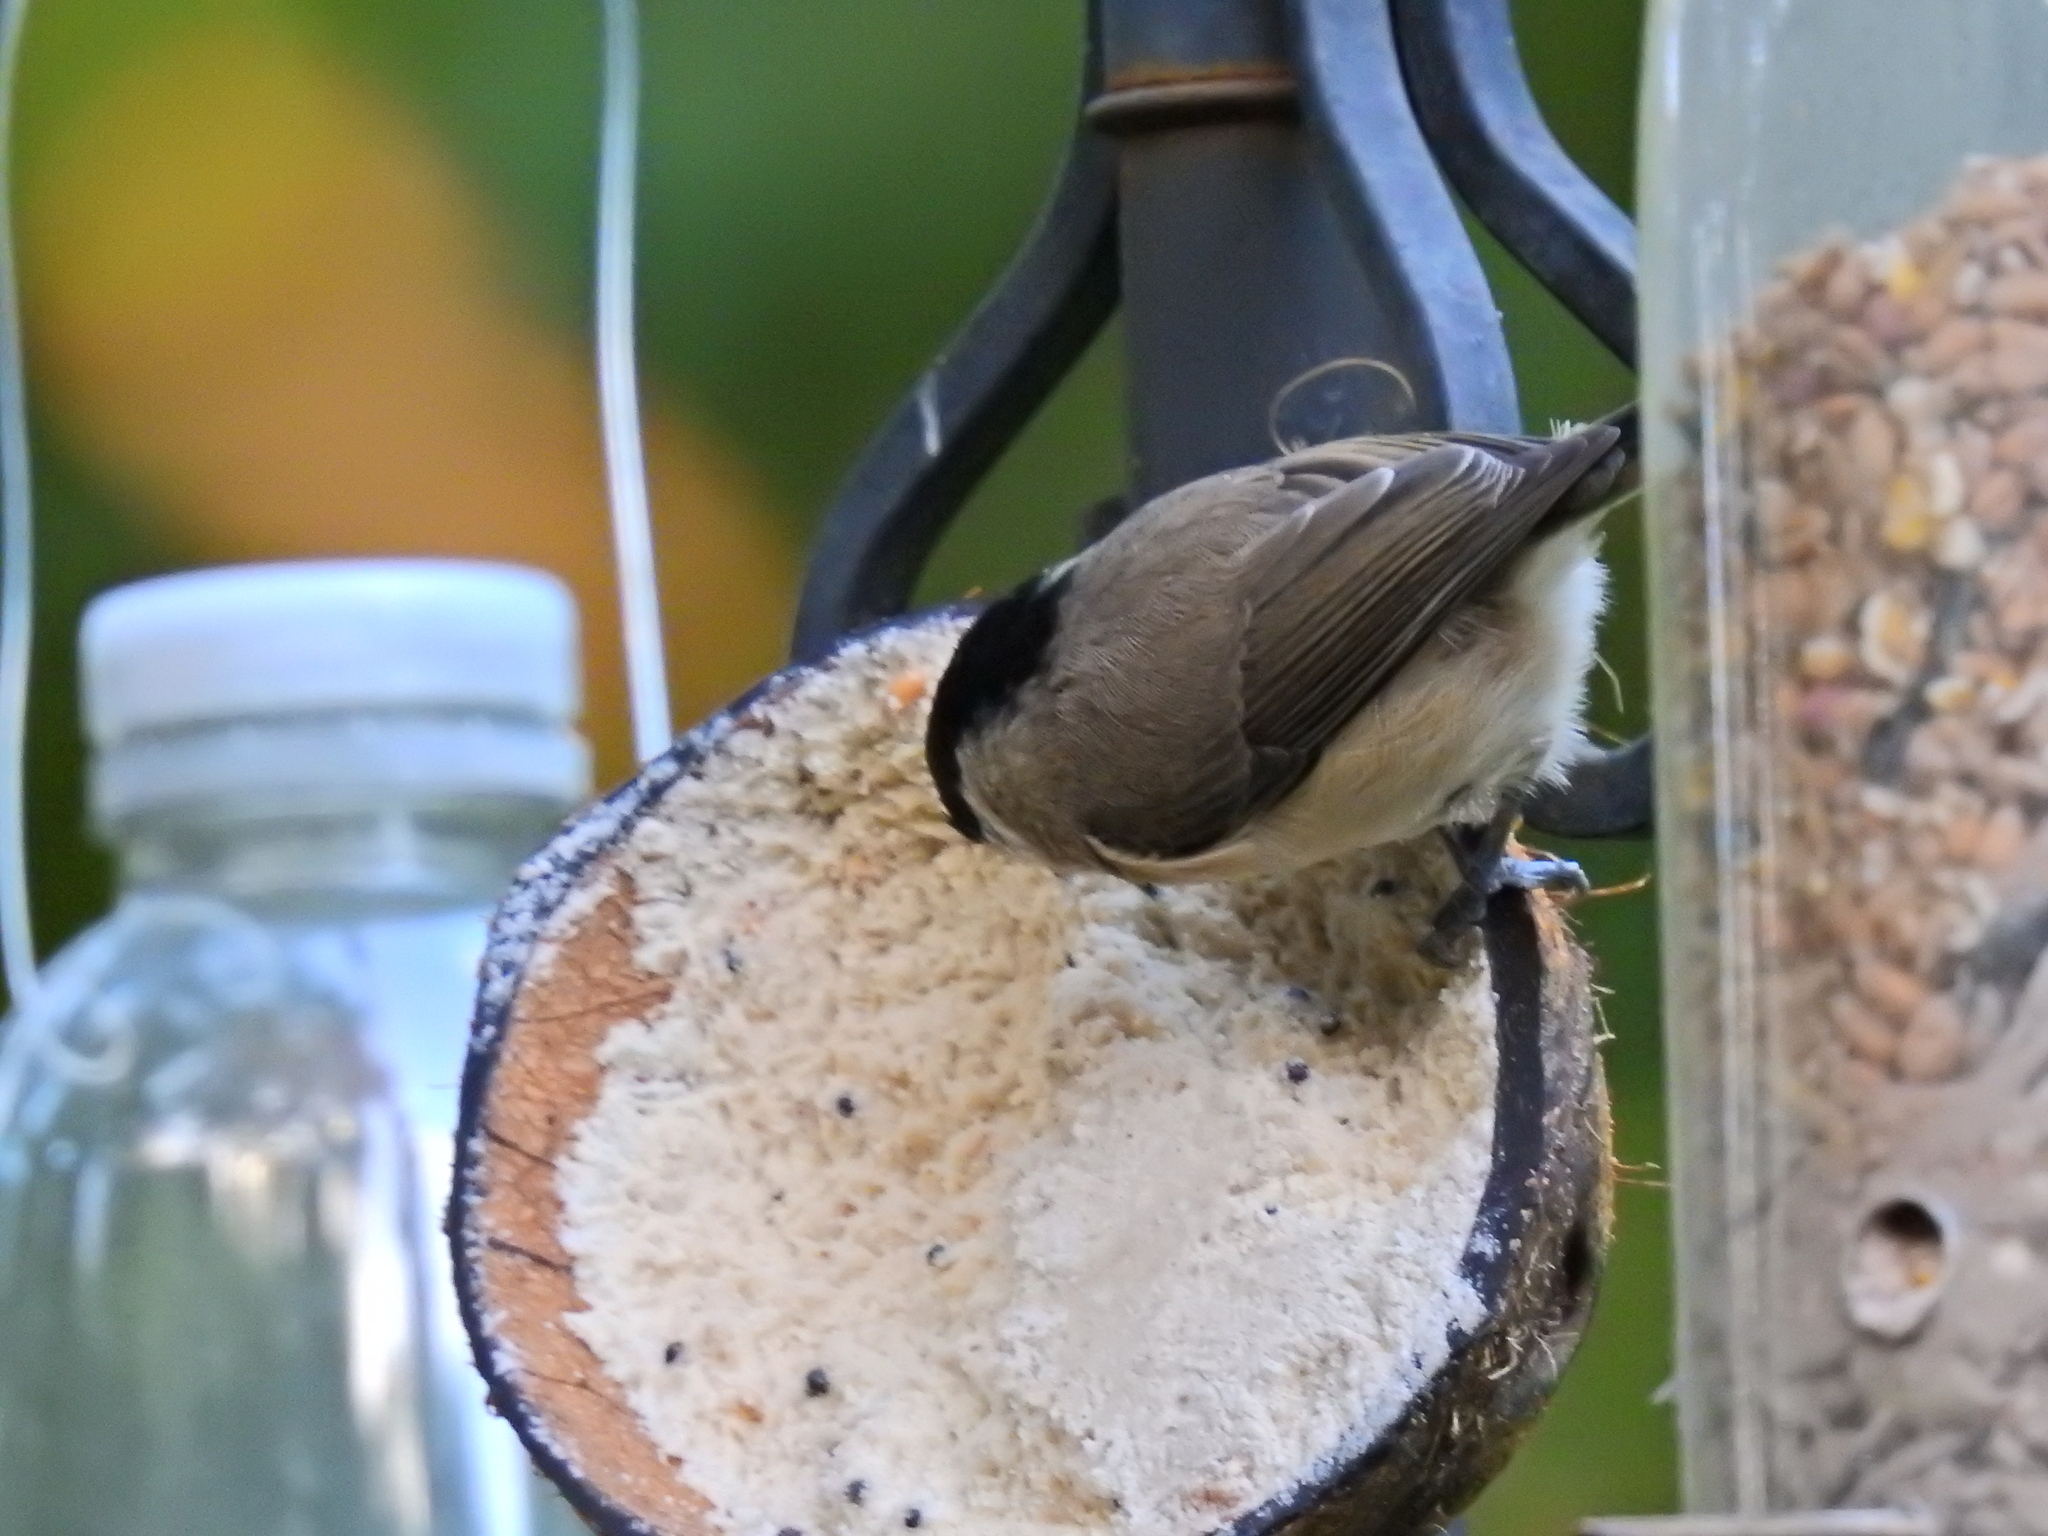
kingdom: Animalia
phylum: Chordata
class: Aves
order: Passeriformes
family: Paridae
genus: Poecile
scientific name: Poecile palustris
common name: Marsh tit
